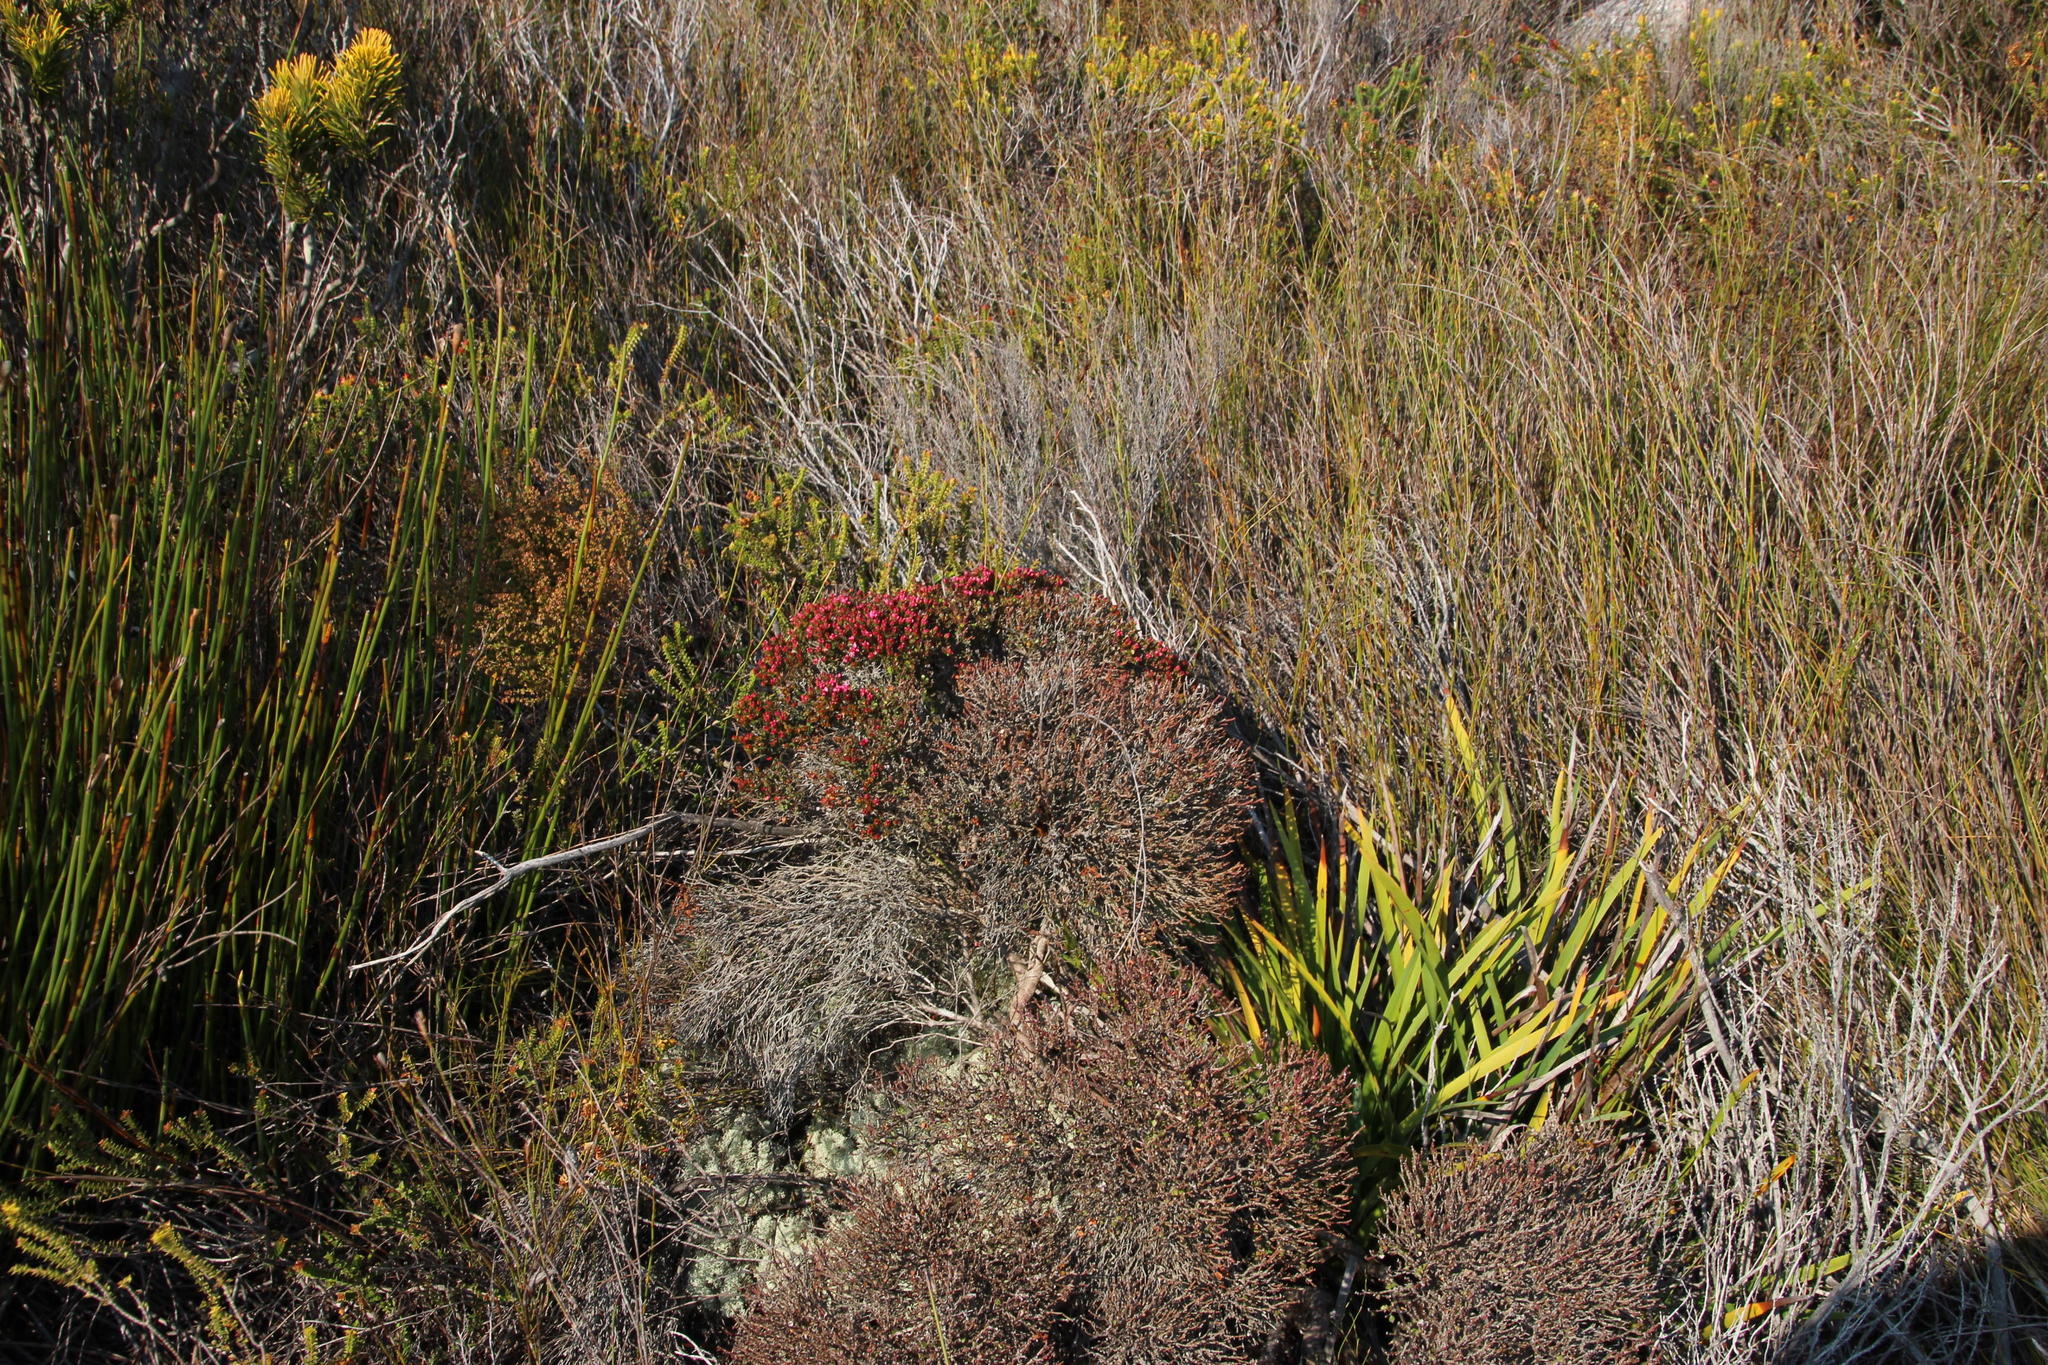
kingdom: Plantae
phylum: Tracheophyta
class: Magnoliopsida
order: Myrtales
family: Penaeaceae
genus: Brachysiphon
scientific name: Brachysiphon acutus
